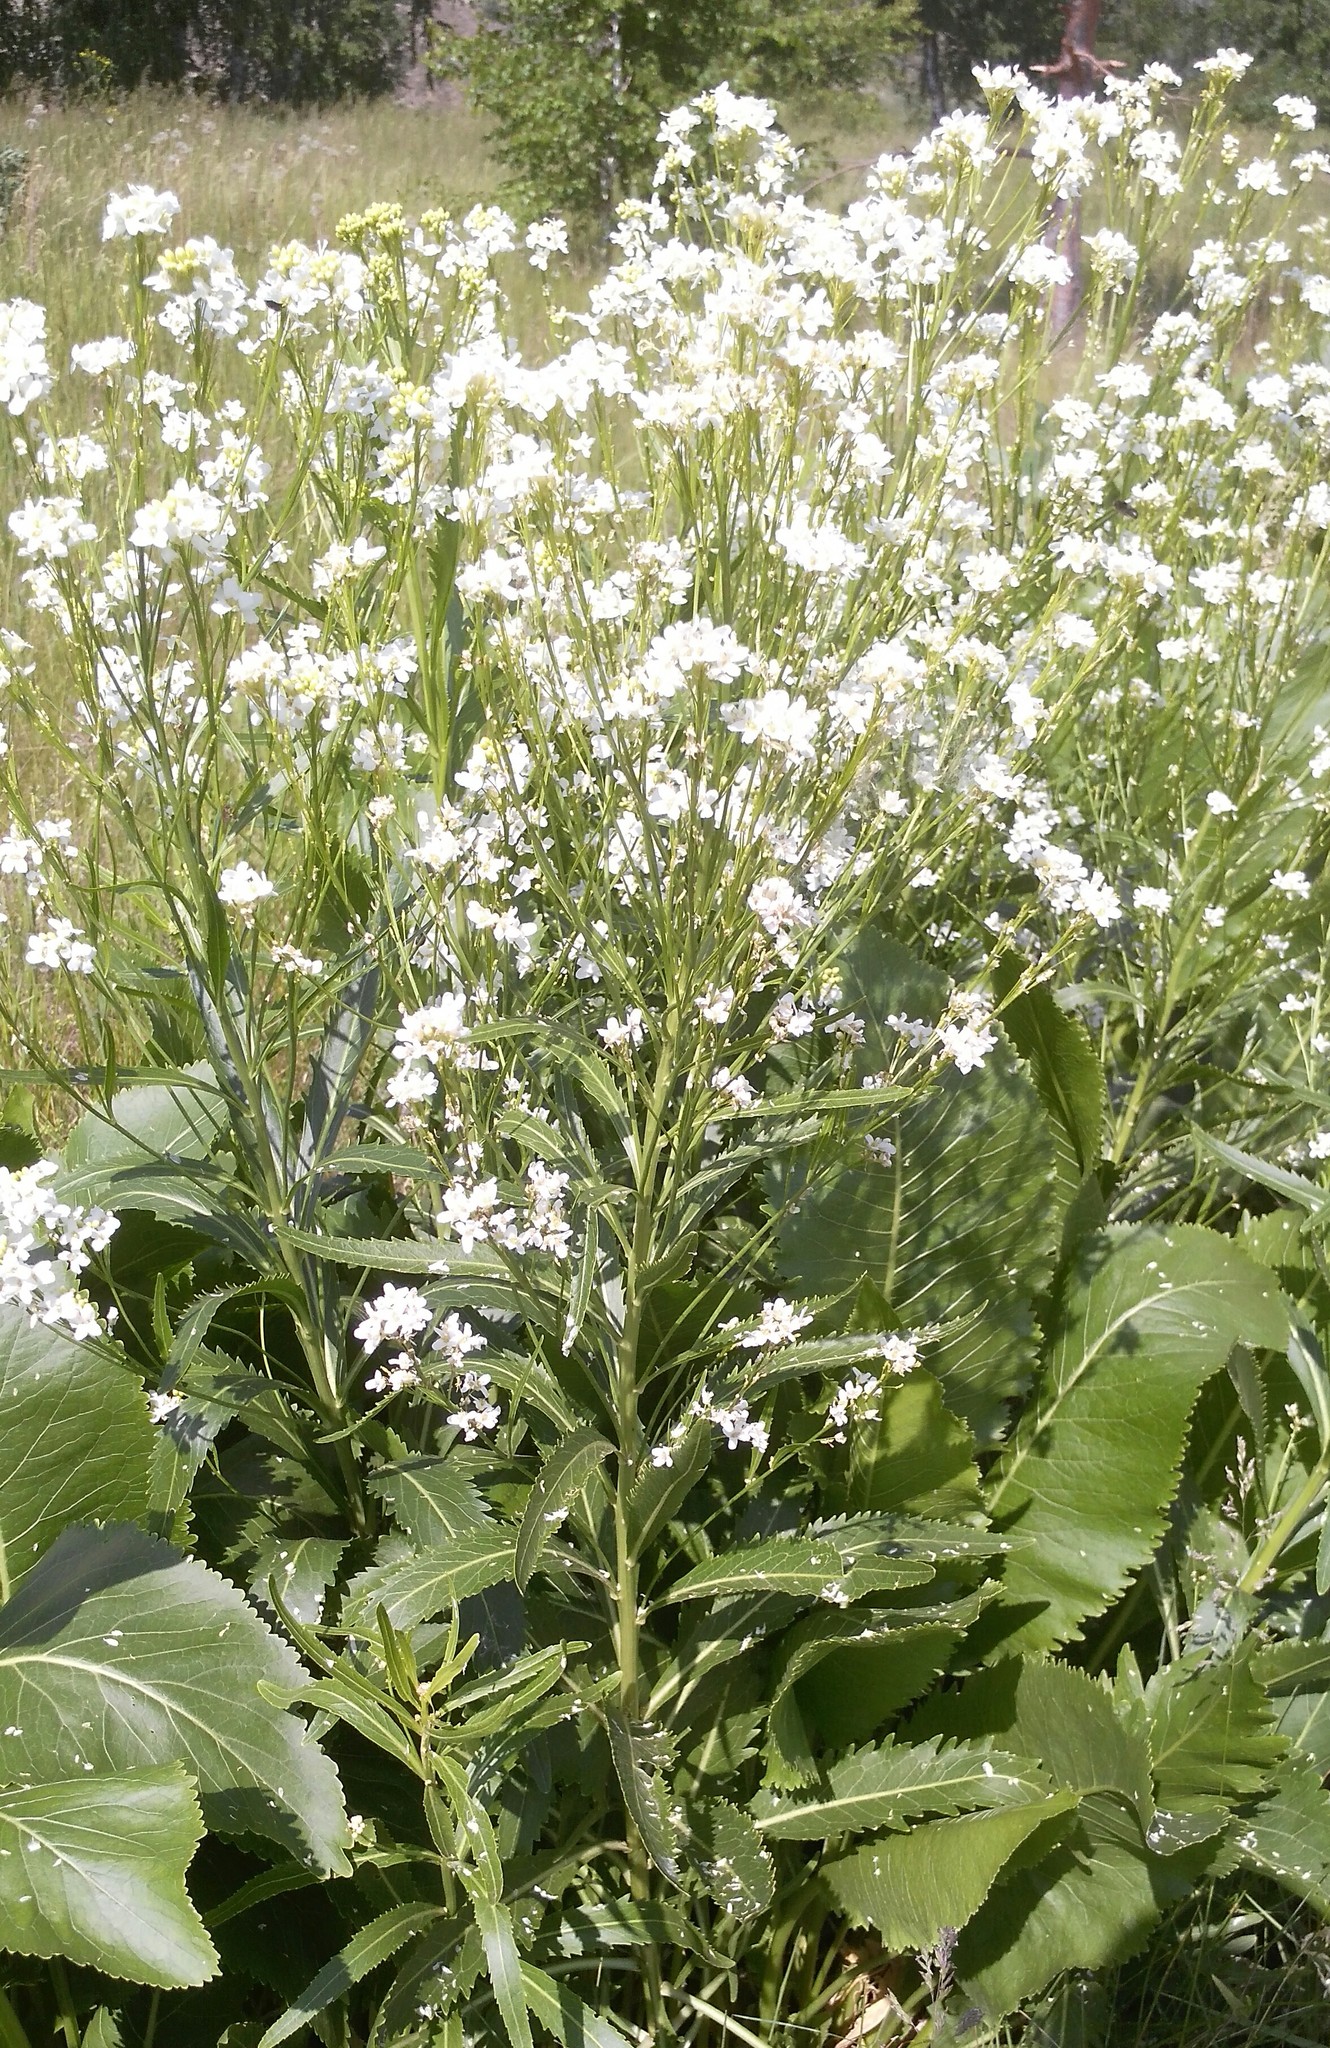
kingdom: Plantae
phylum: Tracheophyta
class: Magnoliopsida
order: Brassicales
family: Brassicaceae
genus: Armoracia
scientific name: Armoracia rusticana
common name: Horseradish
